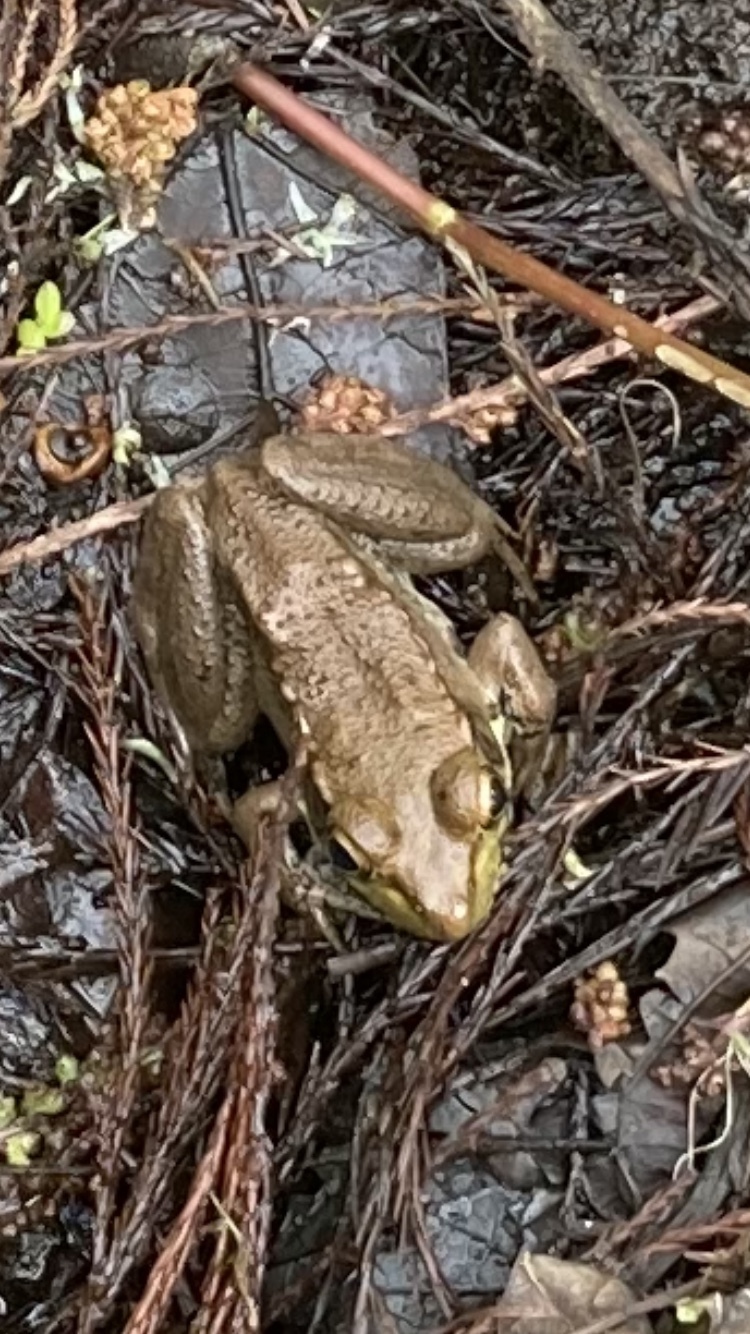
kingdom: Animalia
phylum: Chordata
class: Amphibia
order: Anura
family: Ranidae
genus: Lithobates
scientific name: Lithobates clamitans
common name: Green frog
